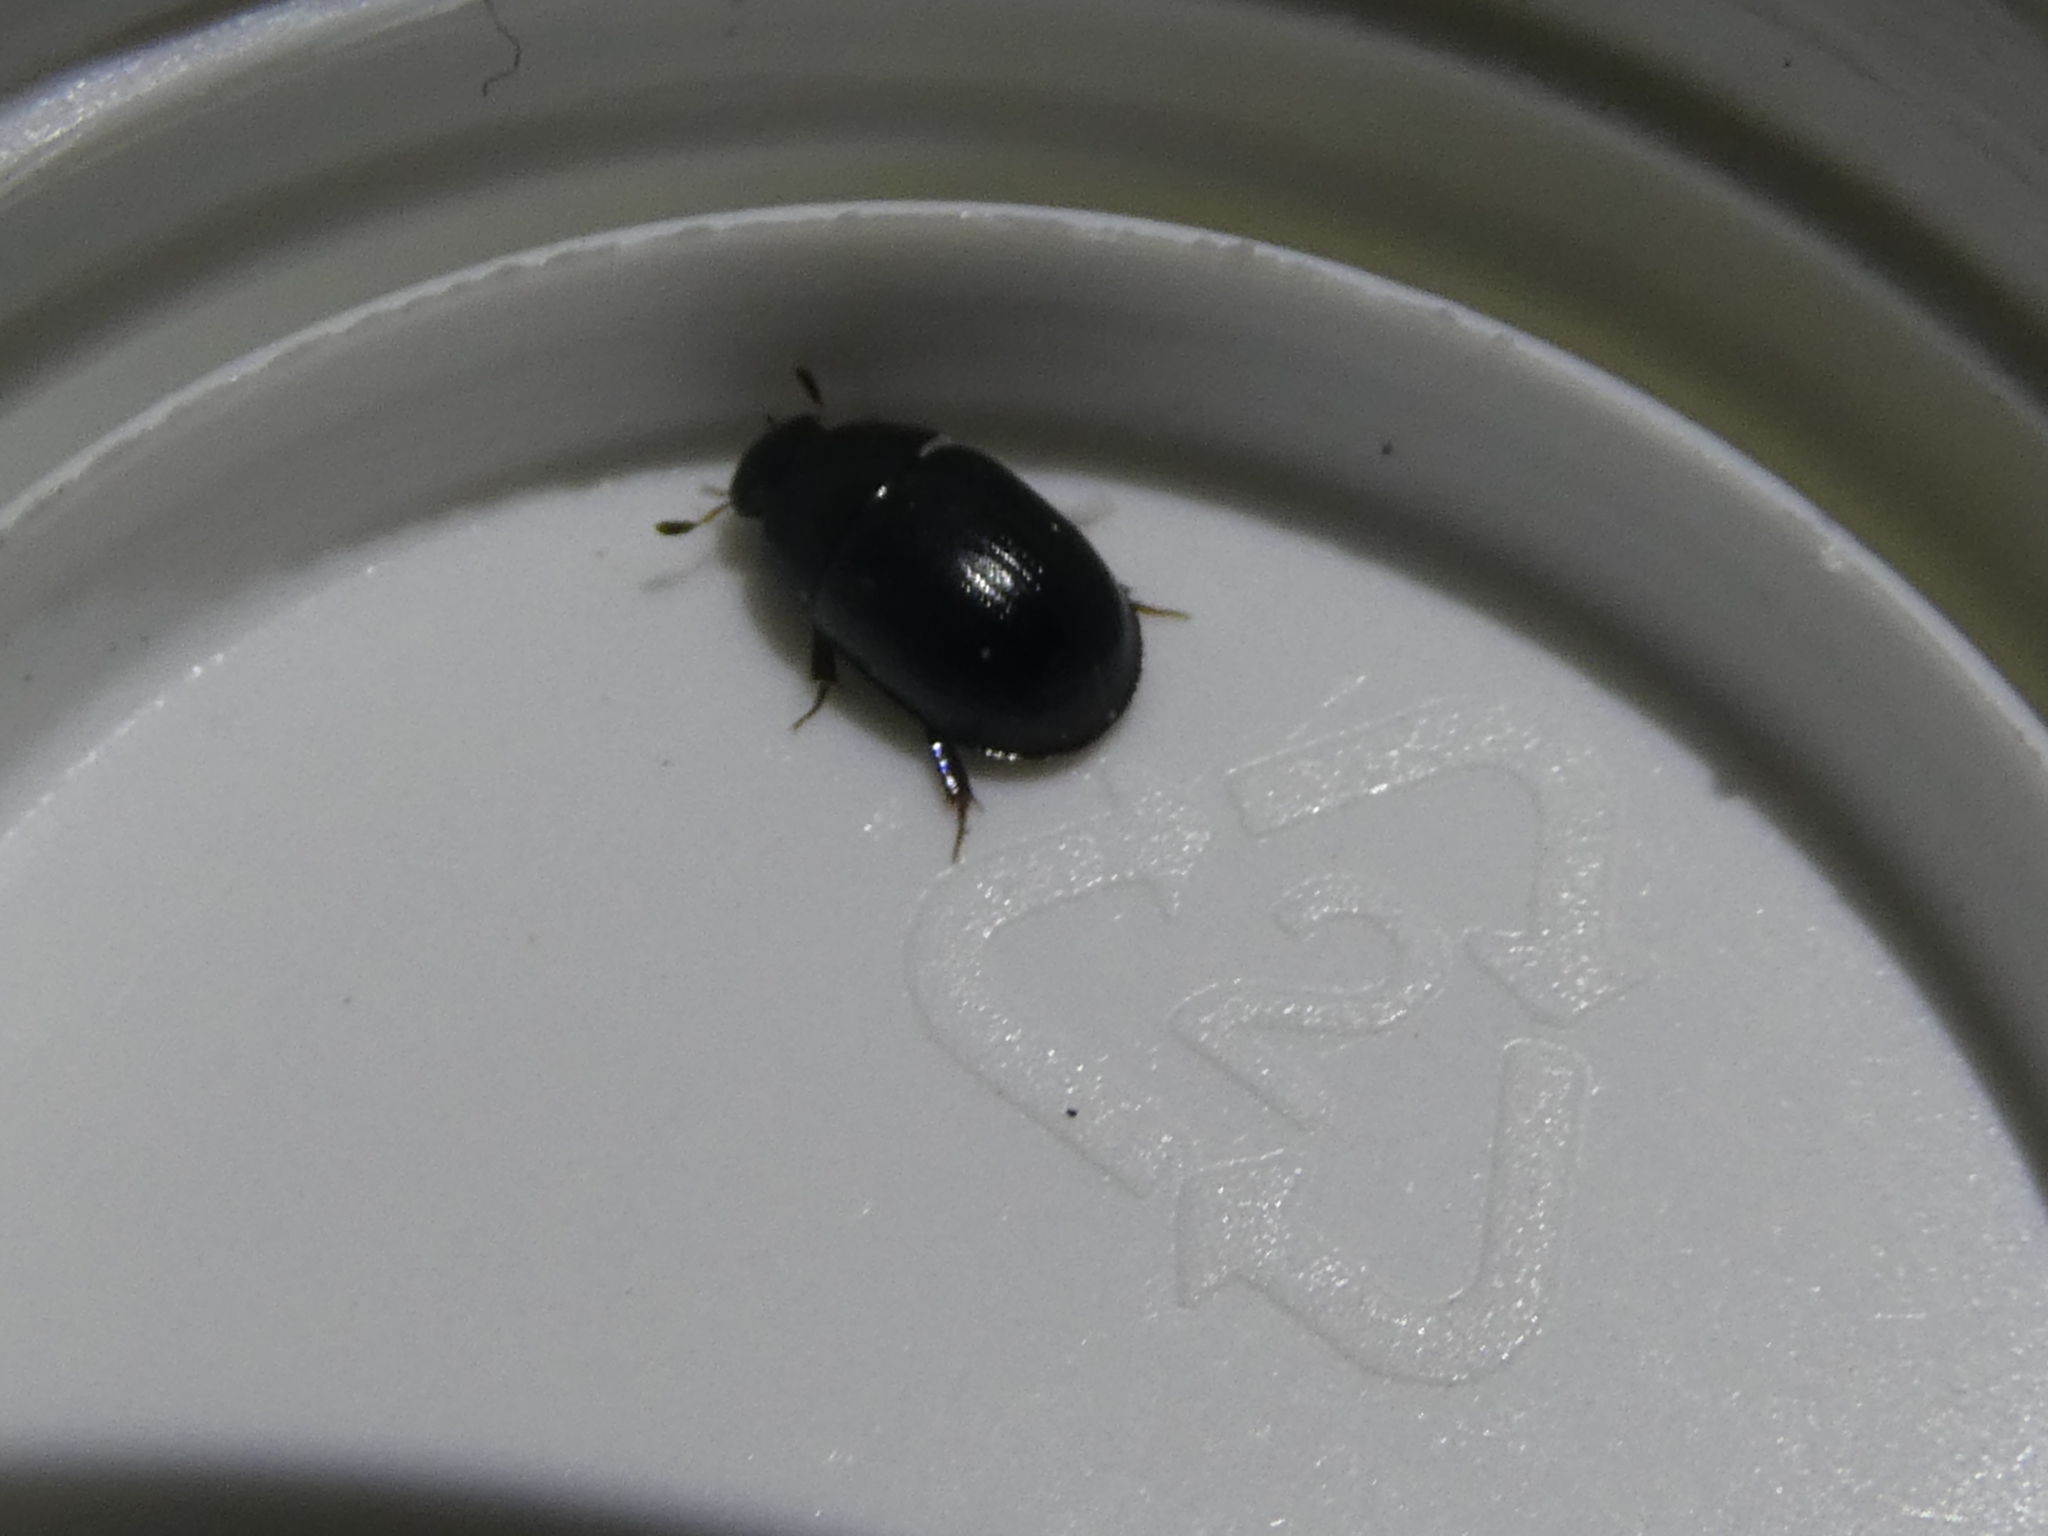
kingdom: Animalia
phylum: Arthropoda
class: Insecta
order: Coleoptera
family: Hydrophilidae
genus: Dactylosternum
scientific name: Dactylosternum abdominale
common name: Water scavenger beetle
